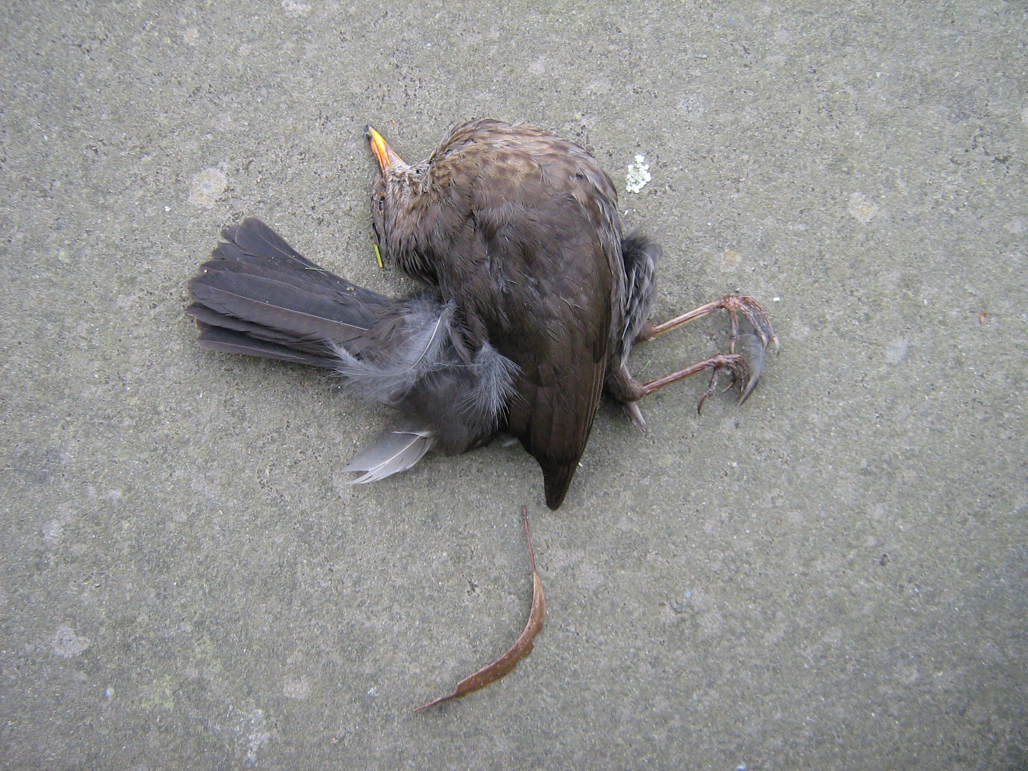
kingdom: Animalia
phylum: Chordata
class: Aves
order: Passeriformes
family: Turdidae
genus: Turdus
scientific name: Turdus merula
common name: Common blackbird
